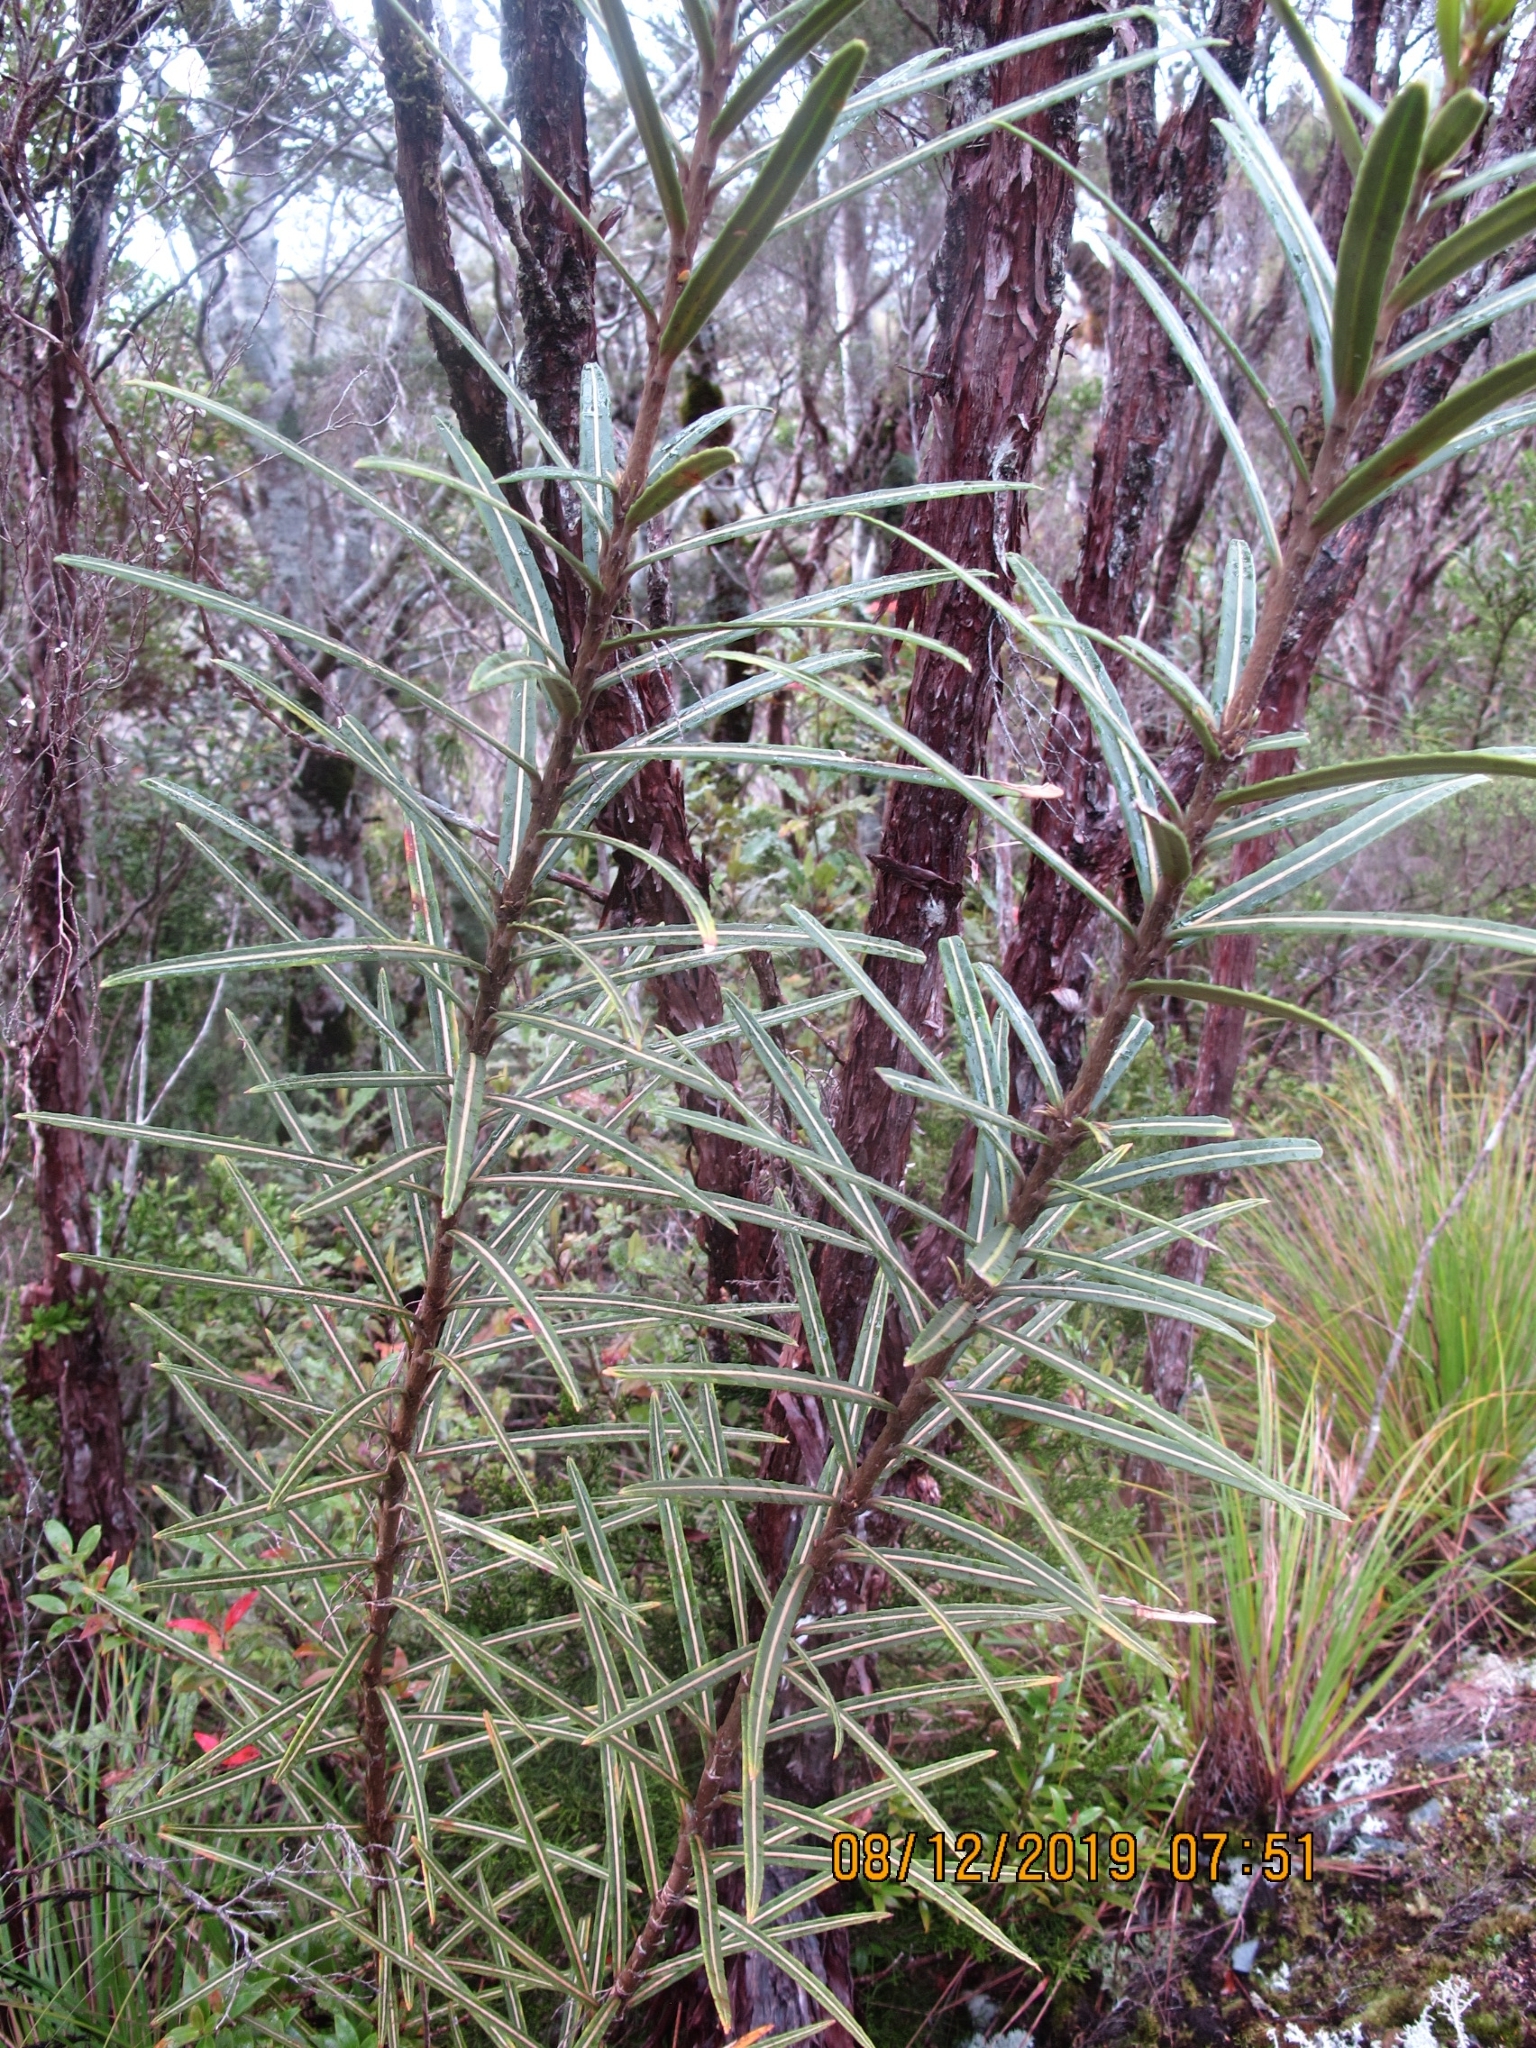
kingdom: Plantae
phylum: Tracheophyta
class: Magnoliopsida
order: Apiales
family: Araliaceae
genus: Pseudopanax
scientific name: Pseudopanax linearis
